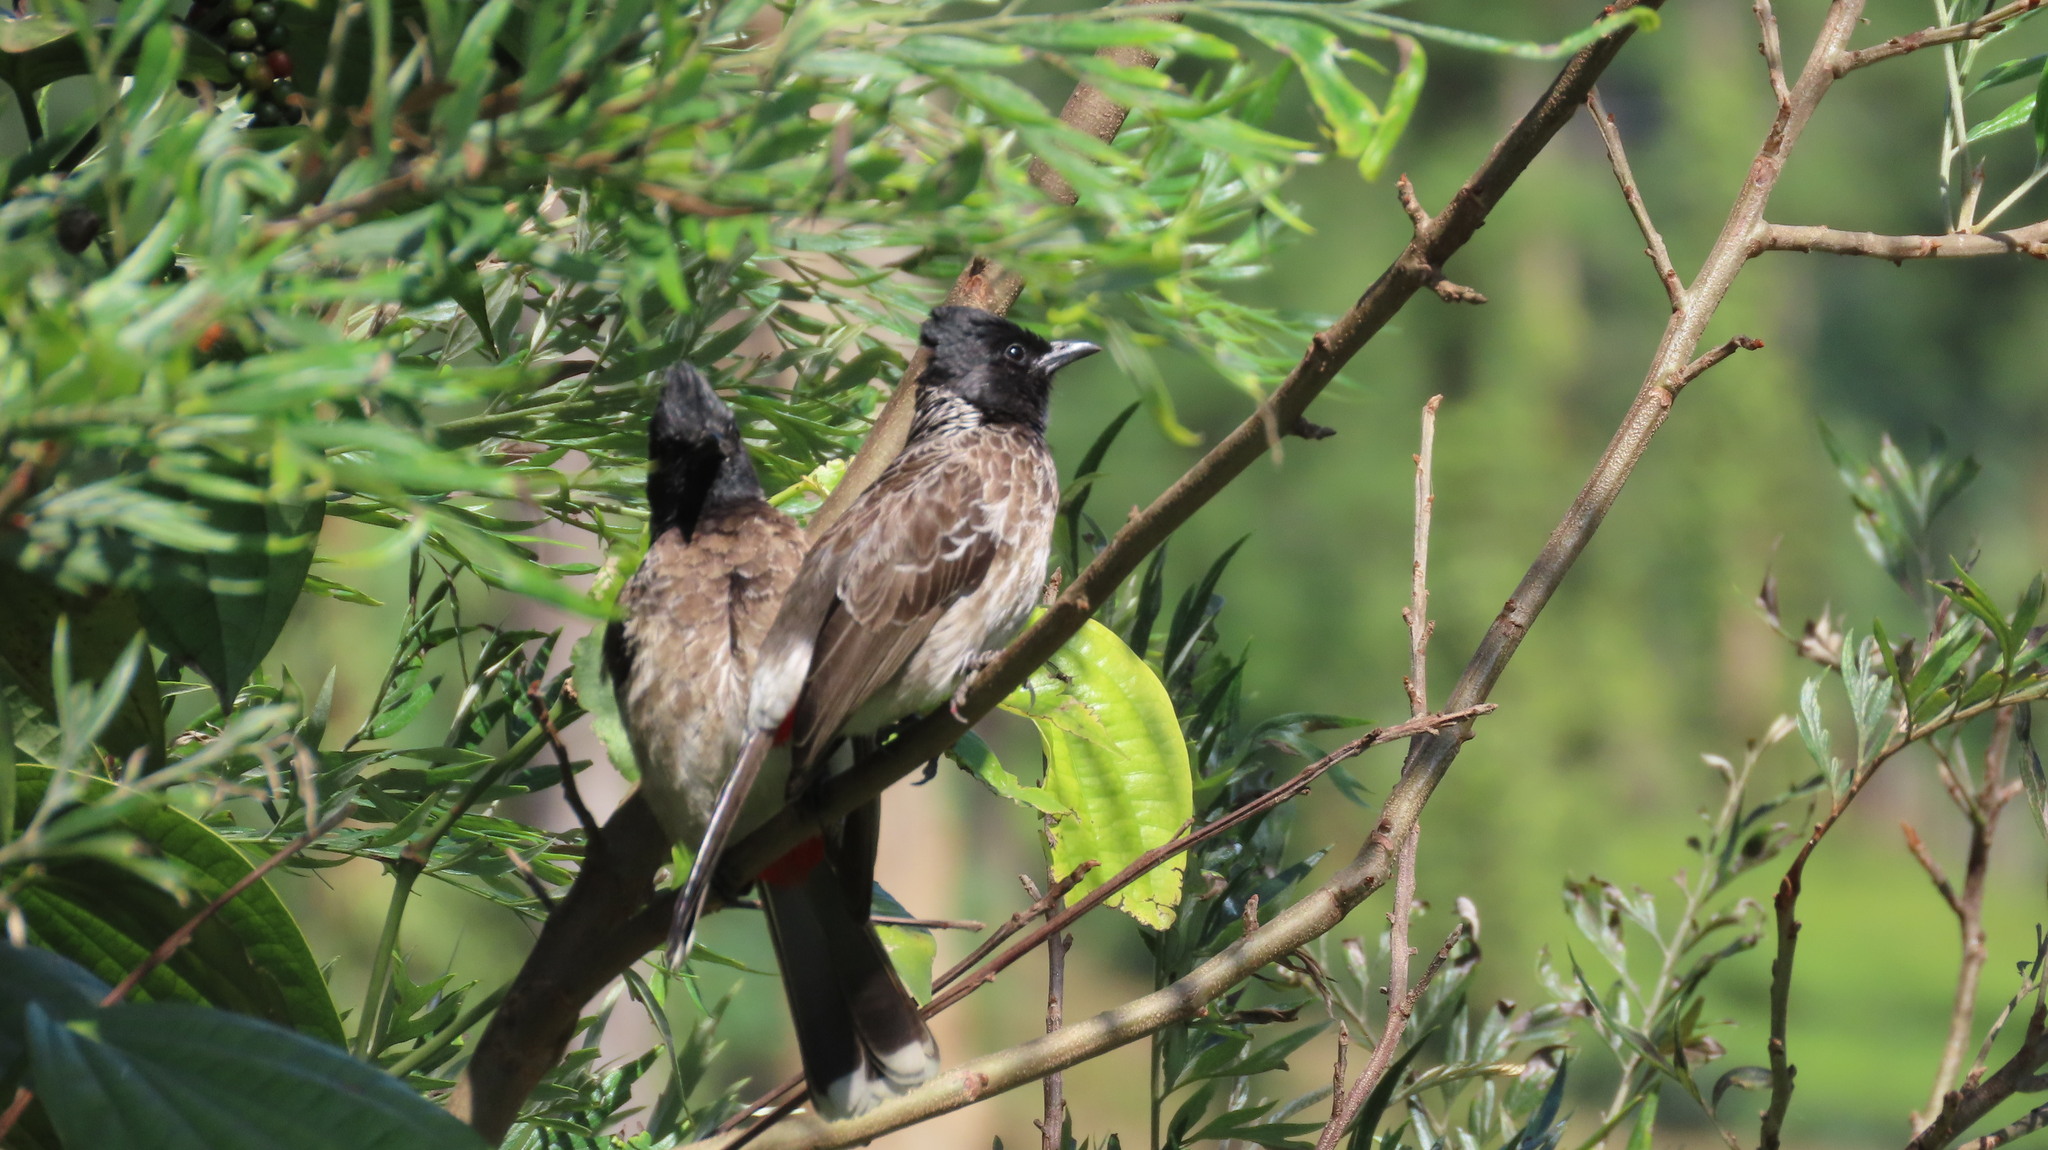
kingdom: Animalia
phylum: Chordata
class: Aves
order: Passeriformes
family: Pycnonotidae
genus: Pycnonotus
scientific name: Pycnonotus cafer
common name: Red-vented bulbul
